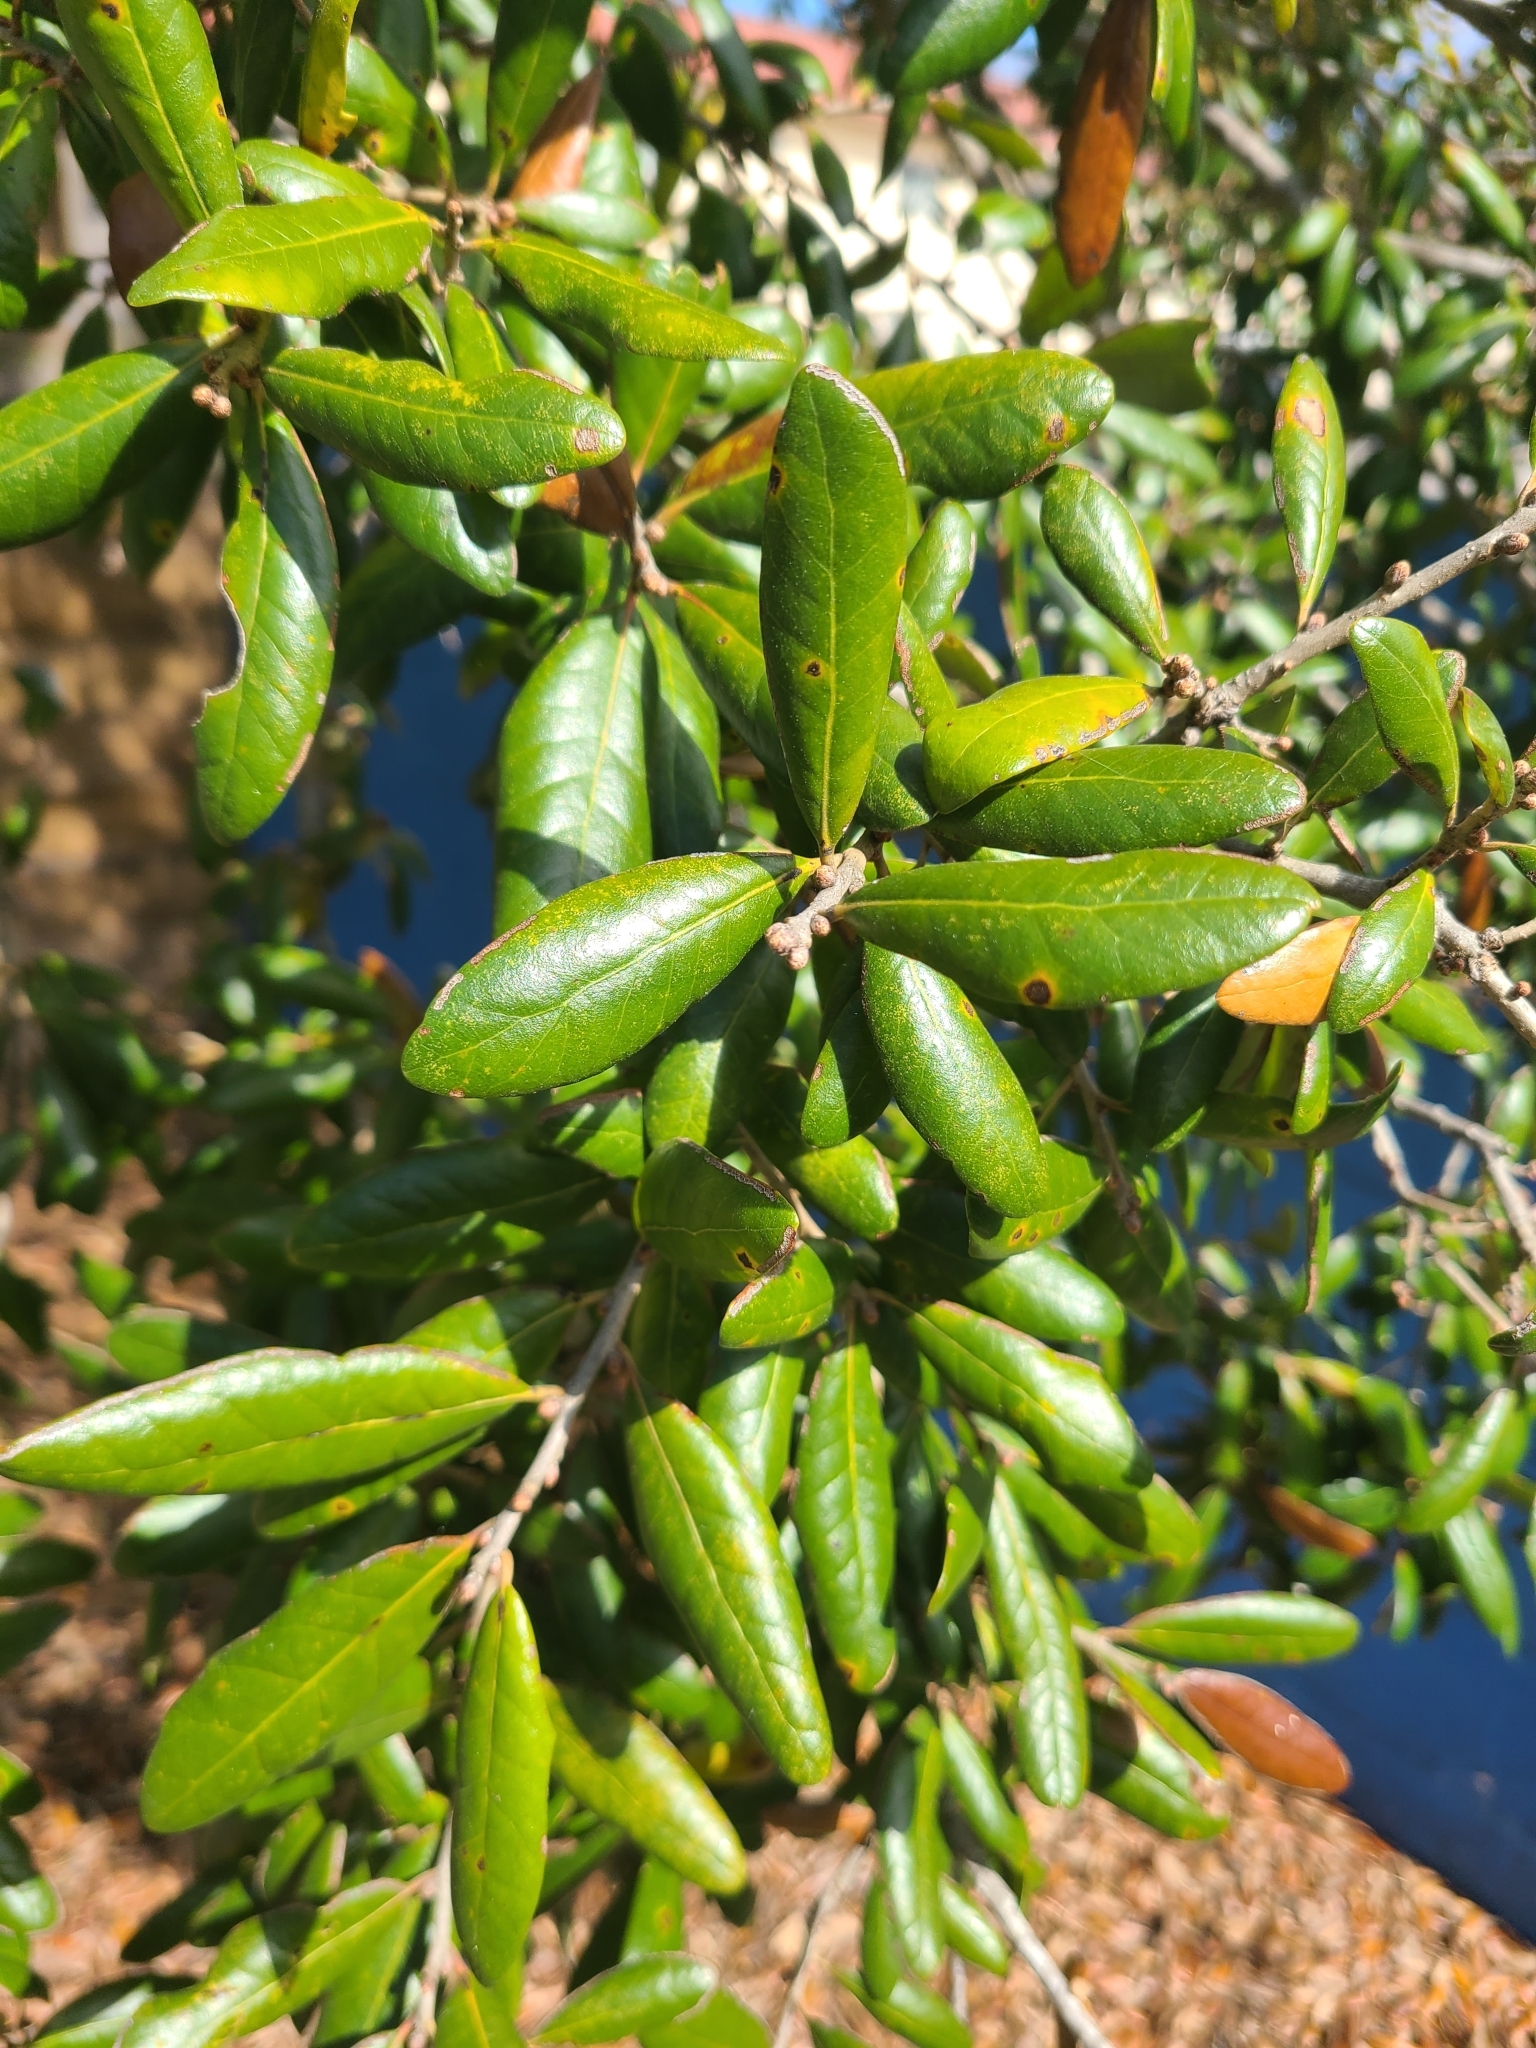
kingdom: Plantae
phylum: Tracheophyta
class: Magnoliopsida
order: Fagales
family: Fagaceae
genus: Quercus
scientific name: Quercus virginiana
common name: Southern live oak
